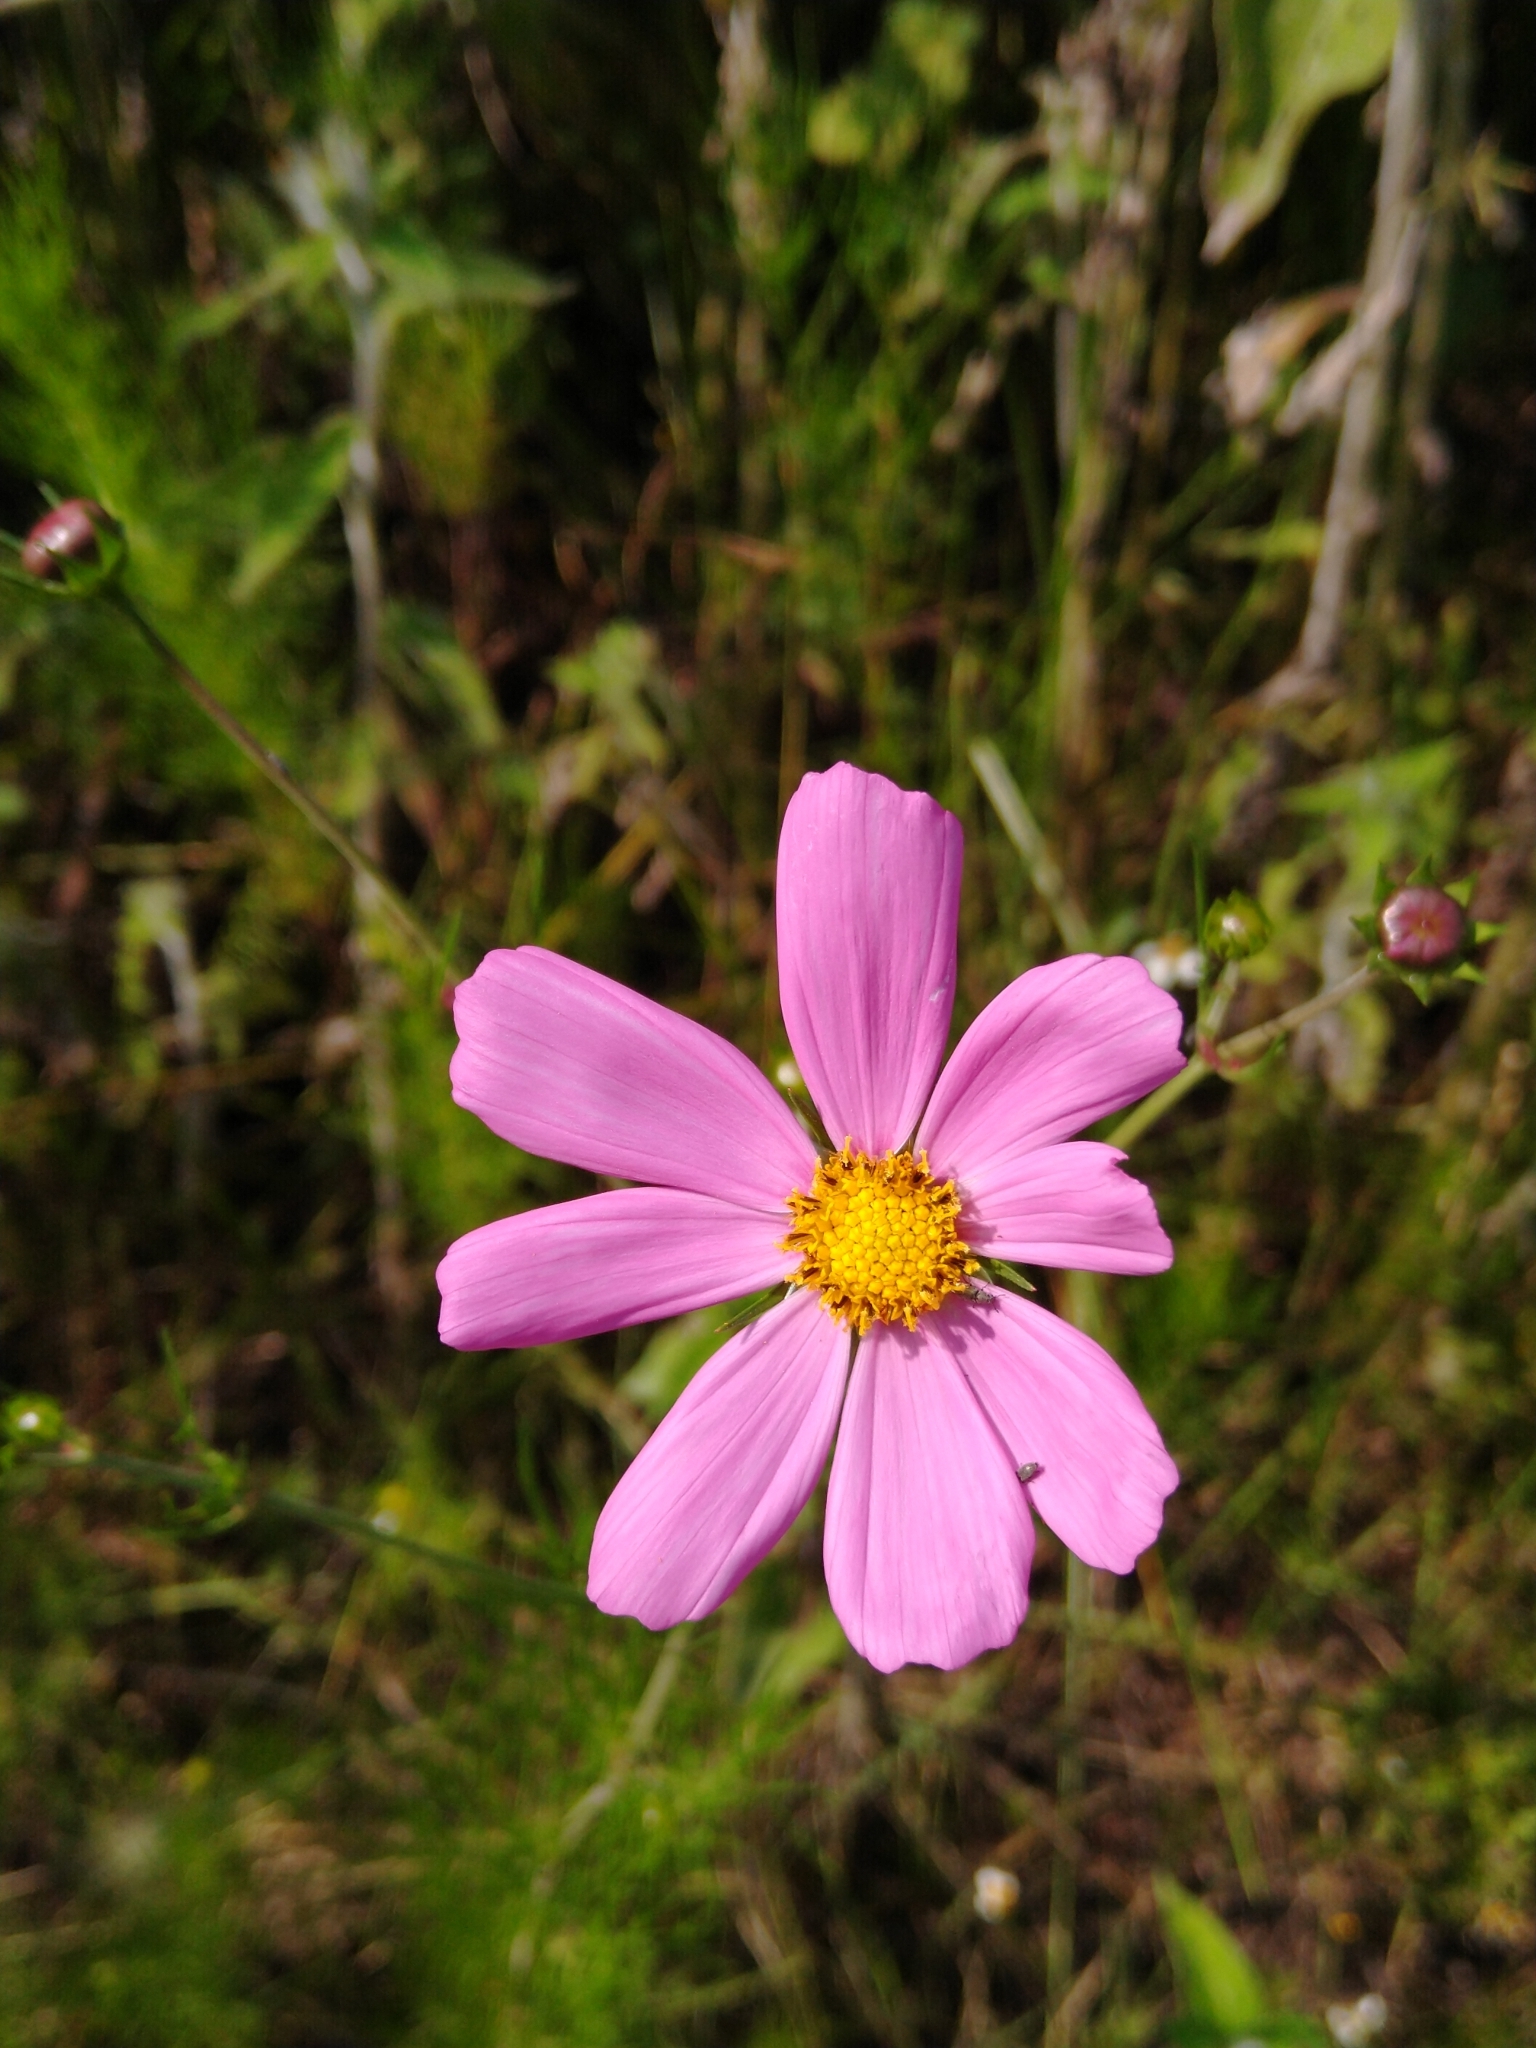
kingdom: Plantae
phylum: Tracheophyta
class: Magnoliopsida
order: Asterales
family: Asteraceae
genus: Cosmos
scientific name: Cosmos bipinnatus
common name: Garden cosmos
